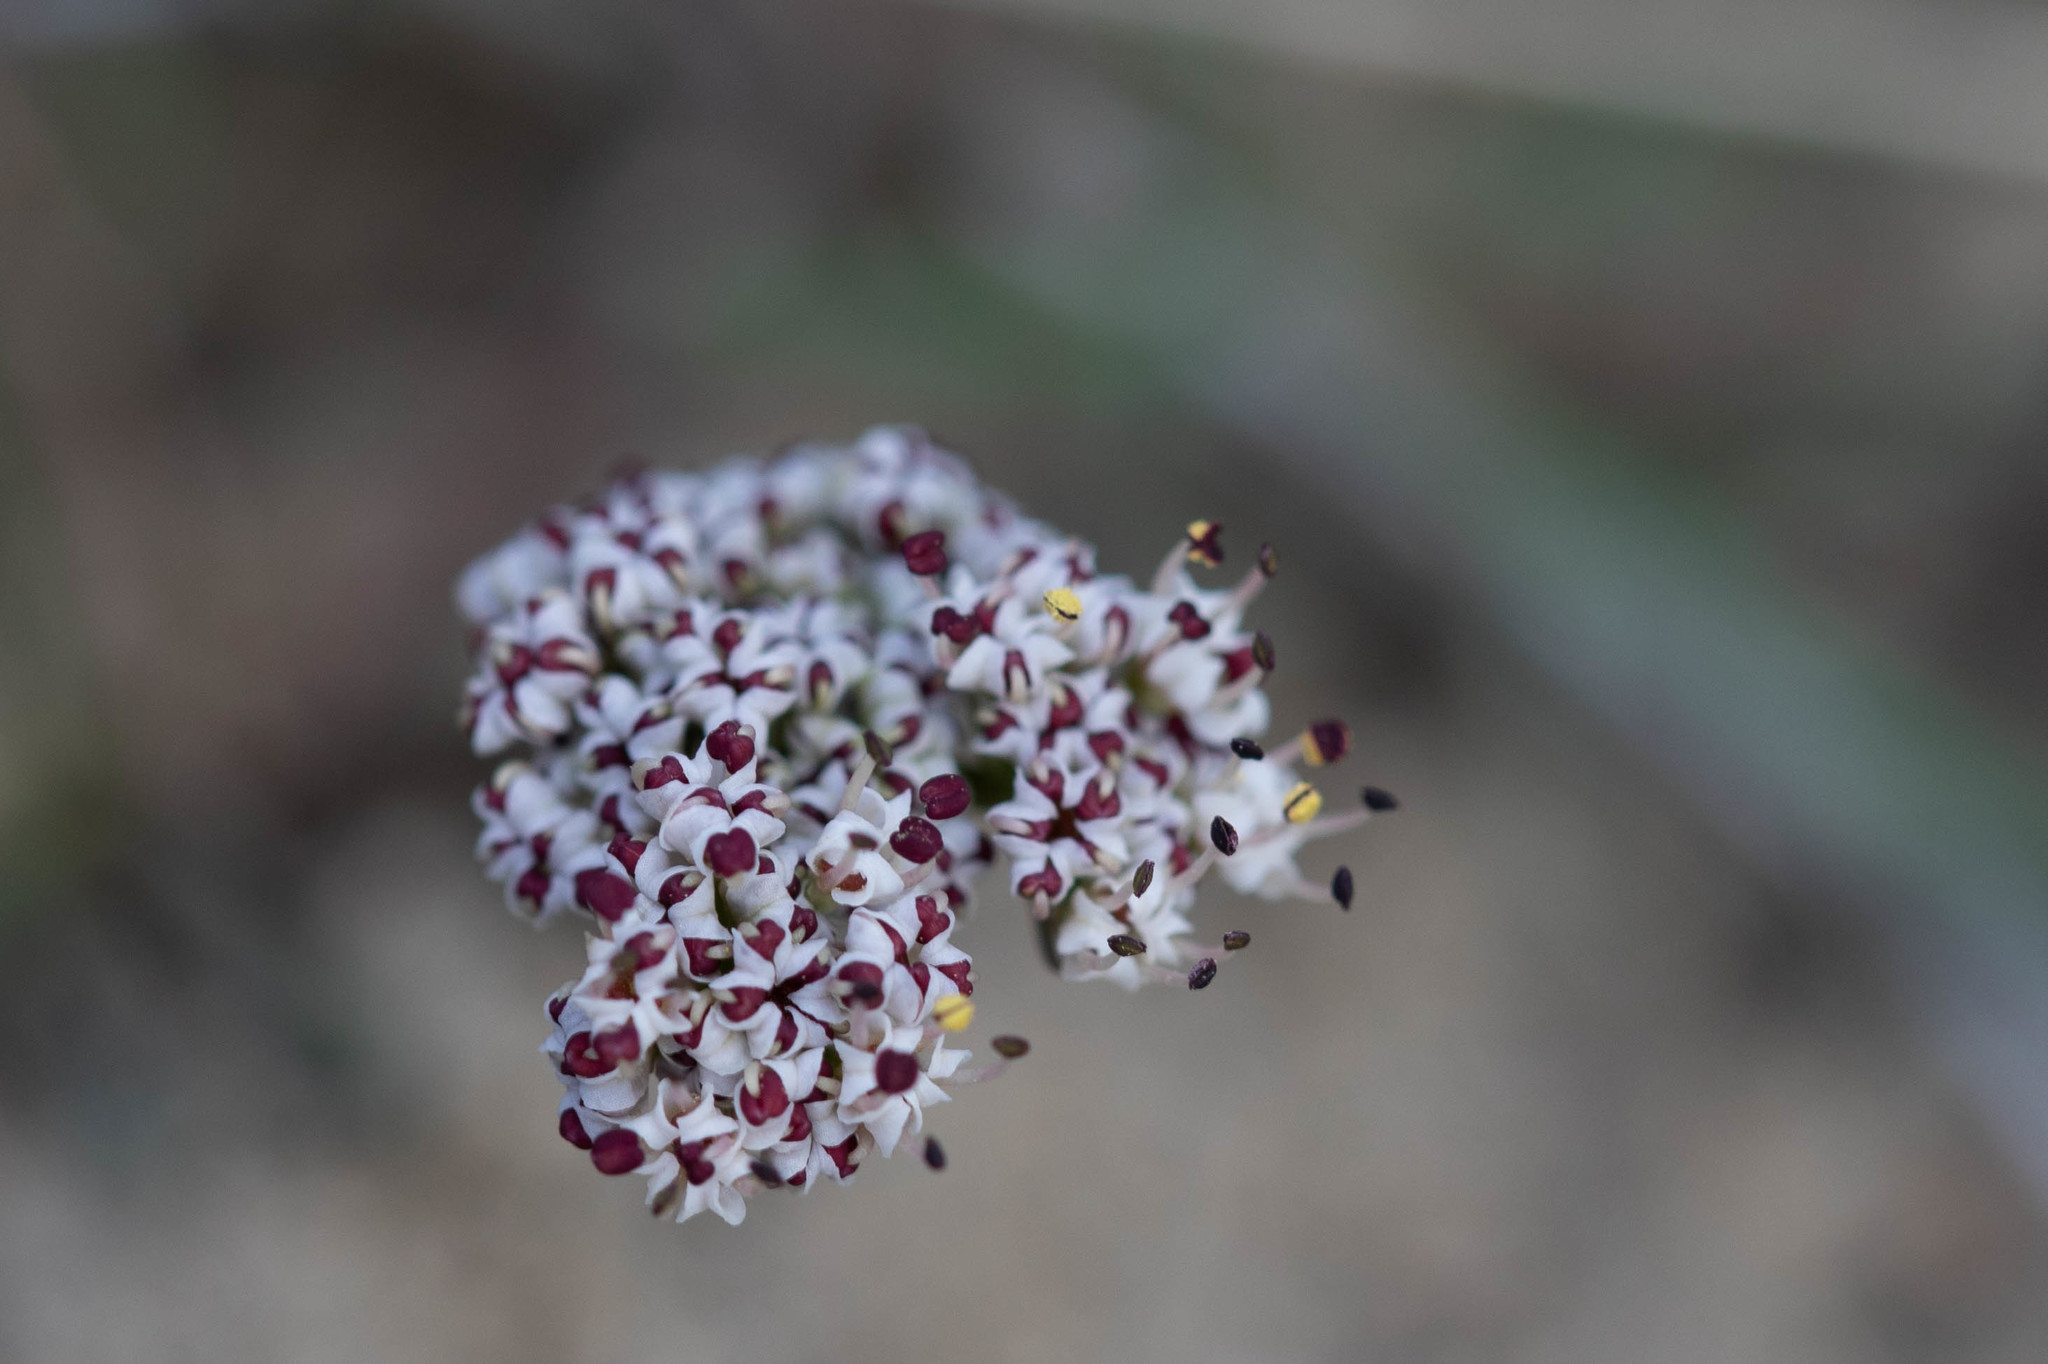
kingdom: Plantae
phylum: Tracheophyta
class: Magnoliopsida
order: Apiales
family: Apiaceae
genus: Lomatium
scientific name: Lomatium geyeri
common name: Geyer's biscuitroot
